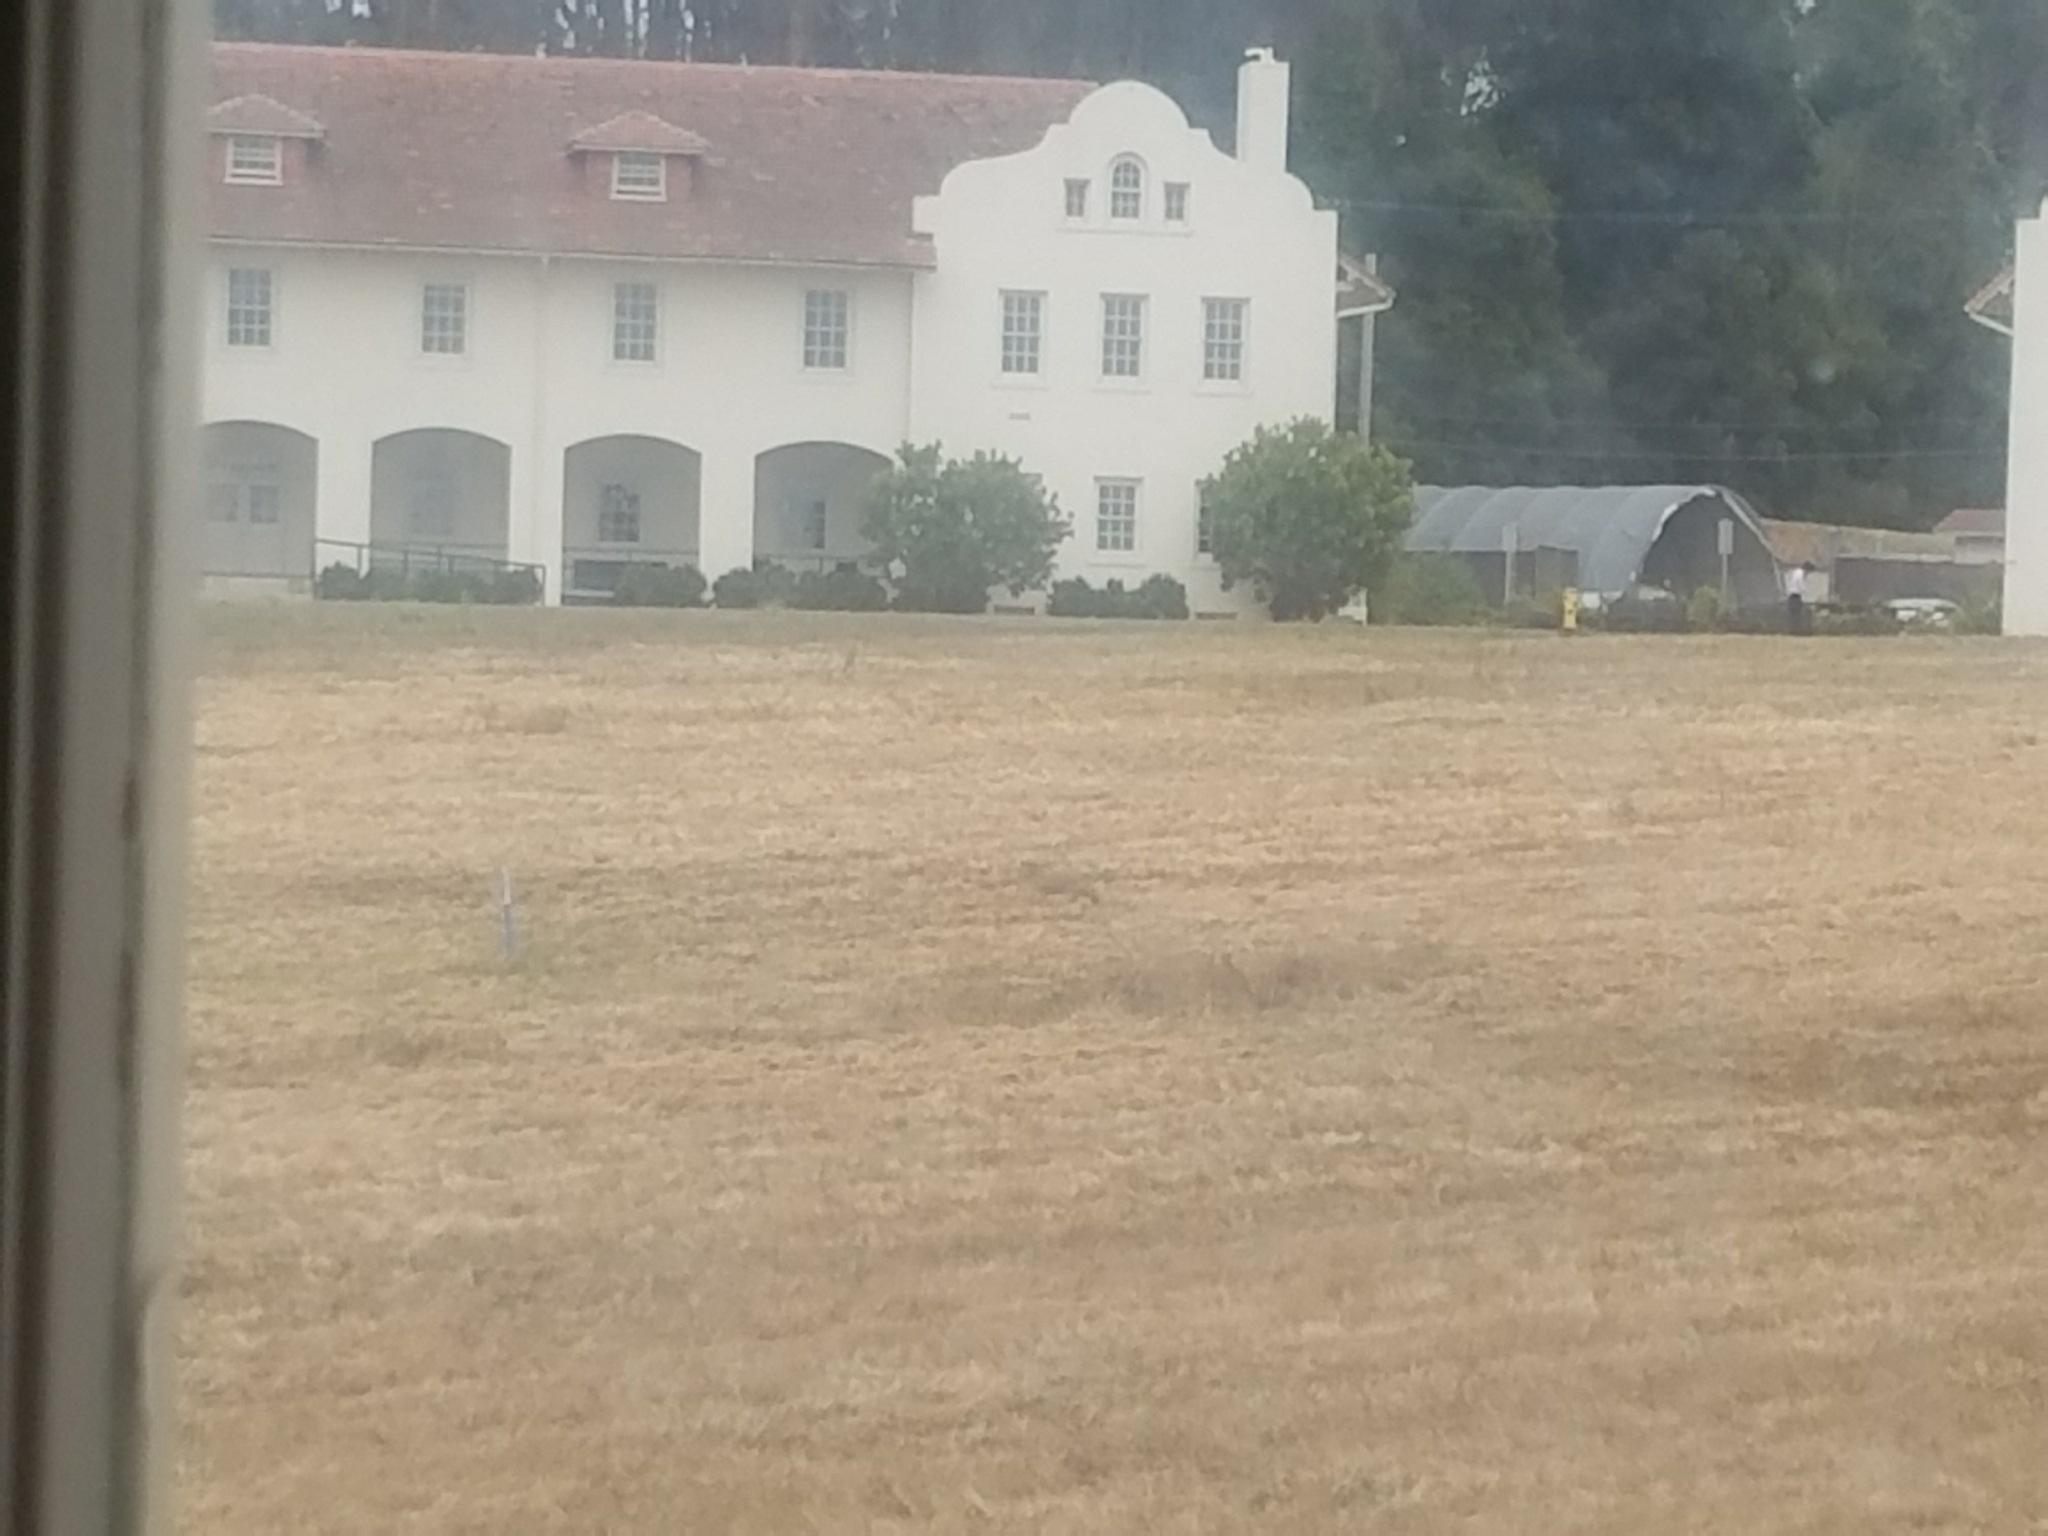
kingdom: Animalia
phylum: Chordata
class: Mammalia
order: Carnivora
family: Canidae
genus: Canis
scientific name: Canis latrans
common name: Coyote
